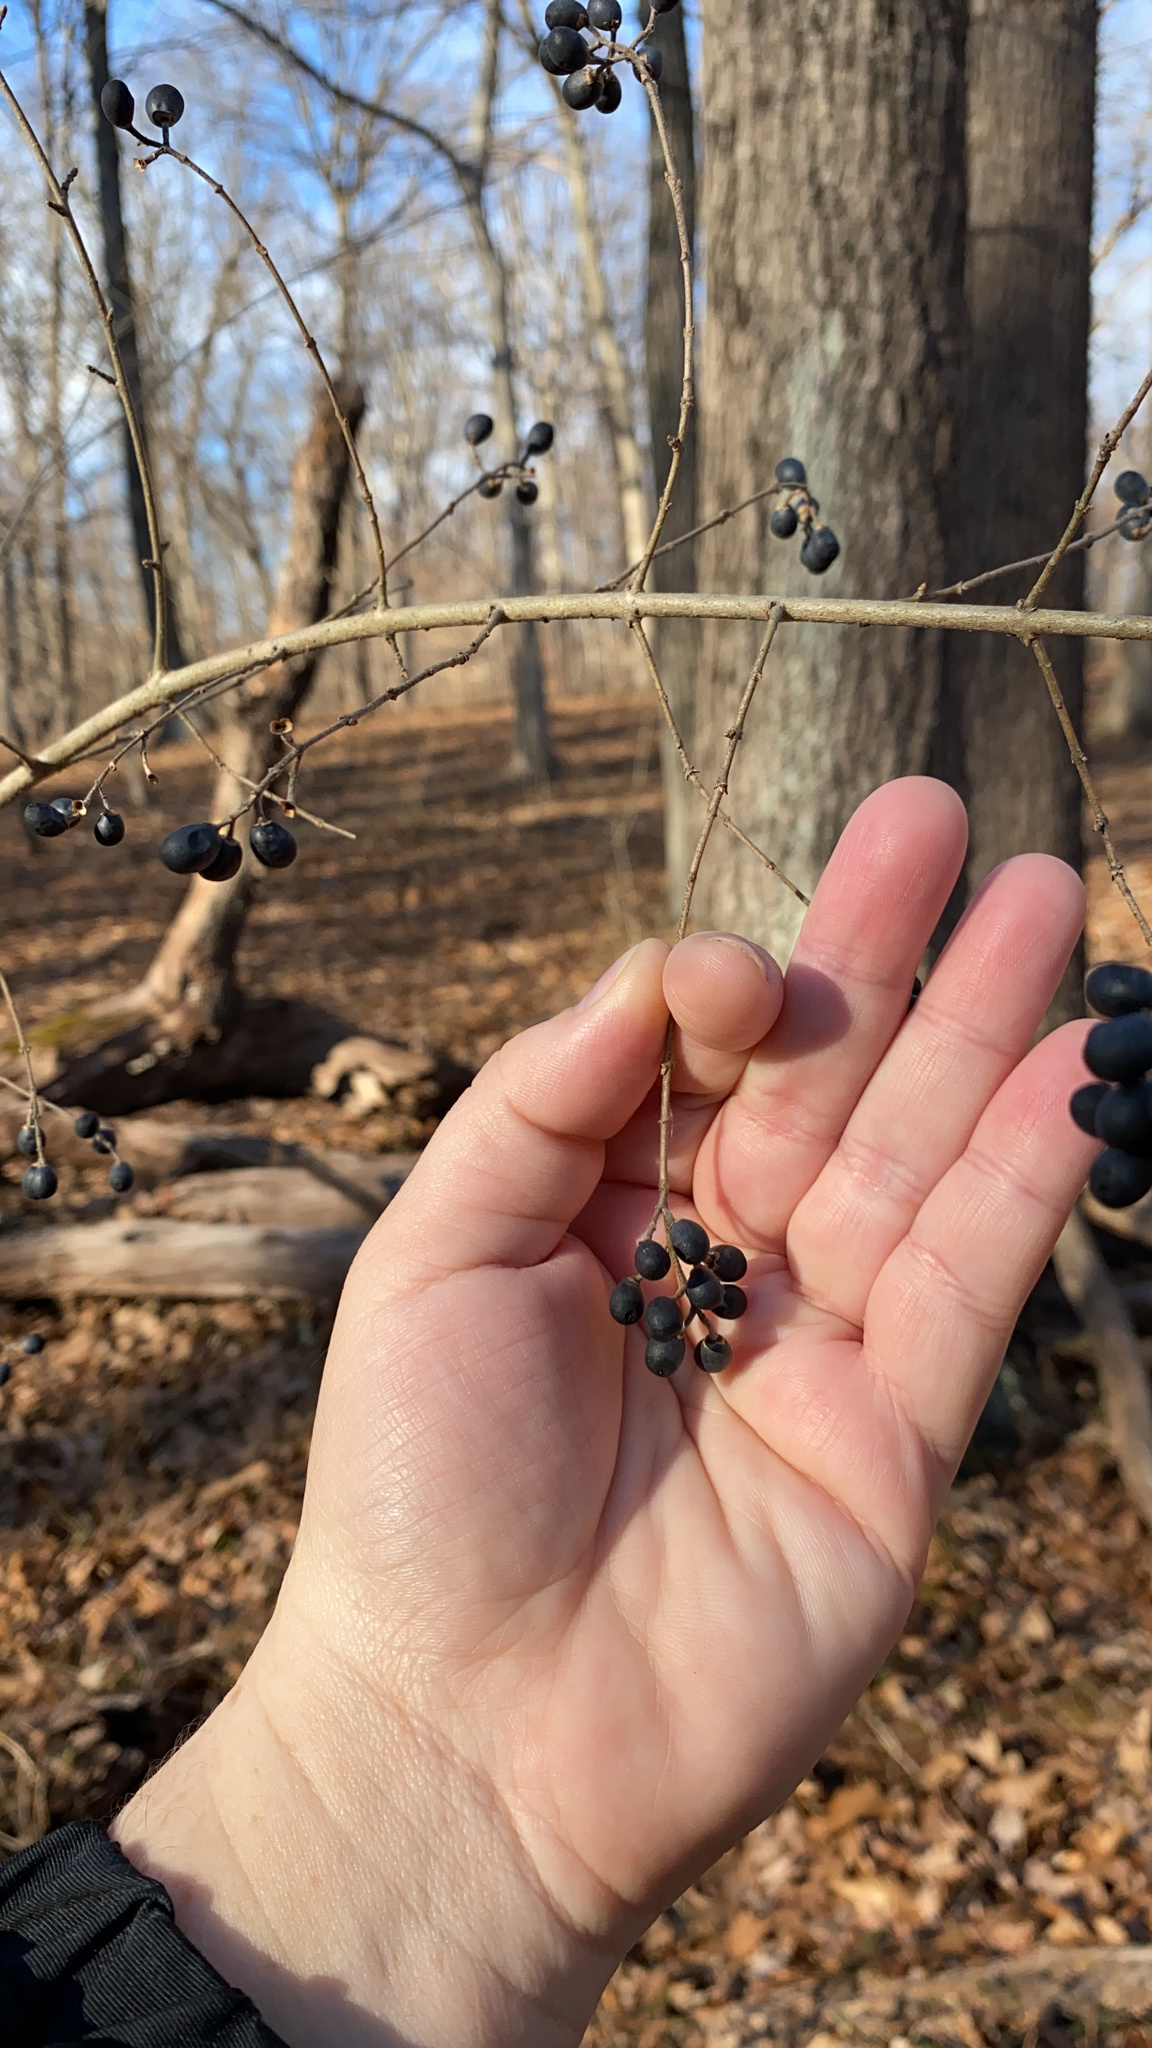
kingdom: Plantae
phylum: Tracheophyta
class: Magnoliopsida
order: Lamiales
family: Oleaceae
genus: Ligustrum
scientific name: Ligustrum obtusifolium
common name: Border privet
